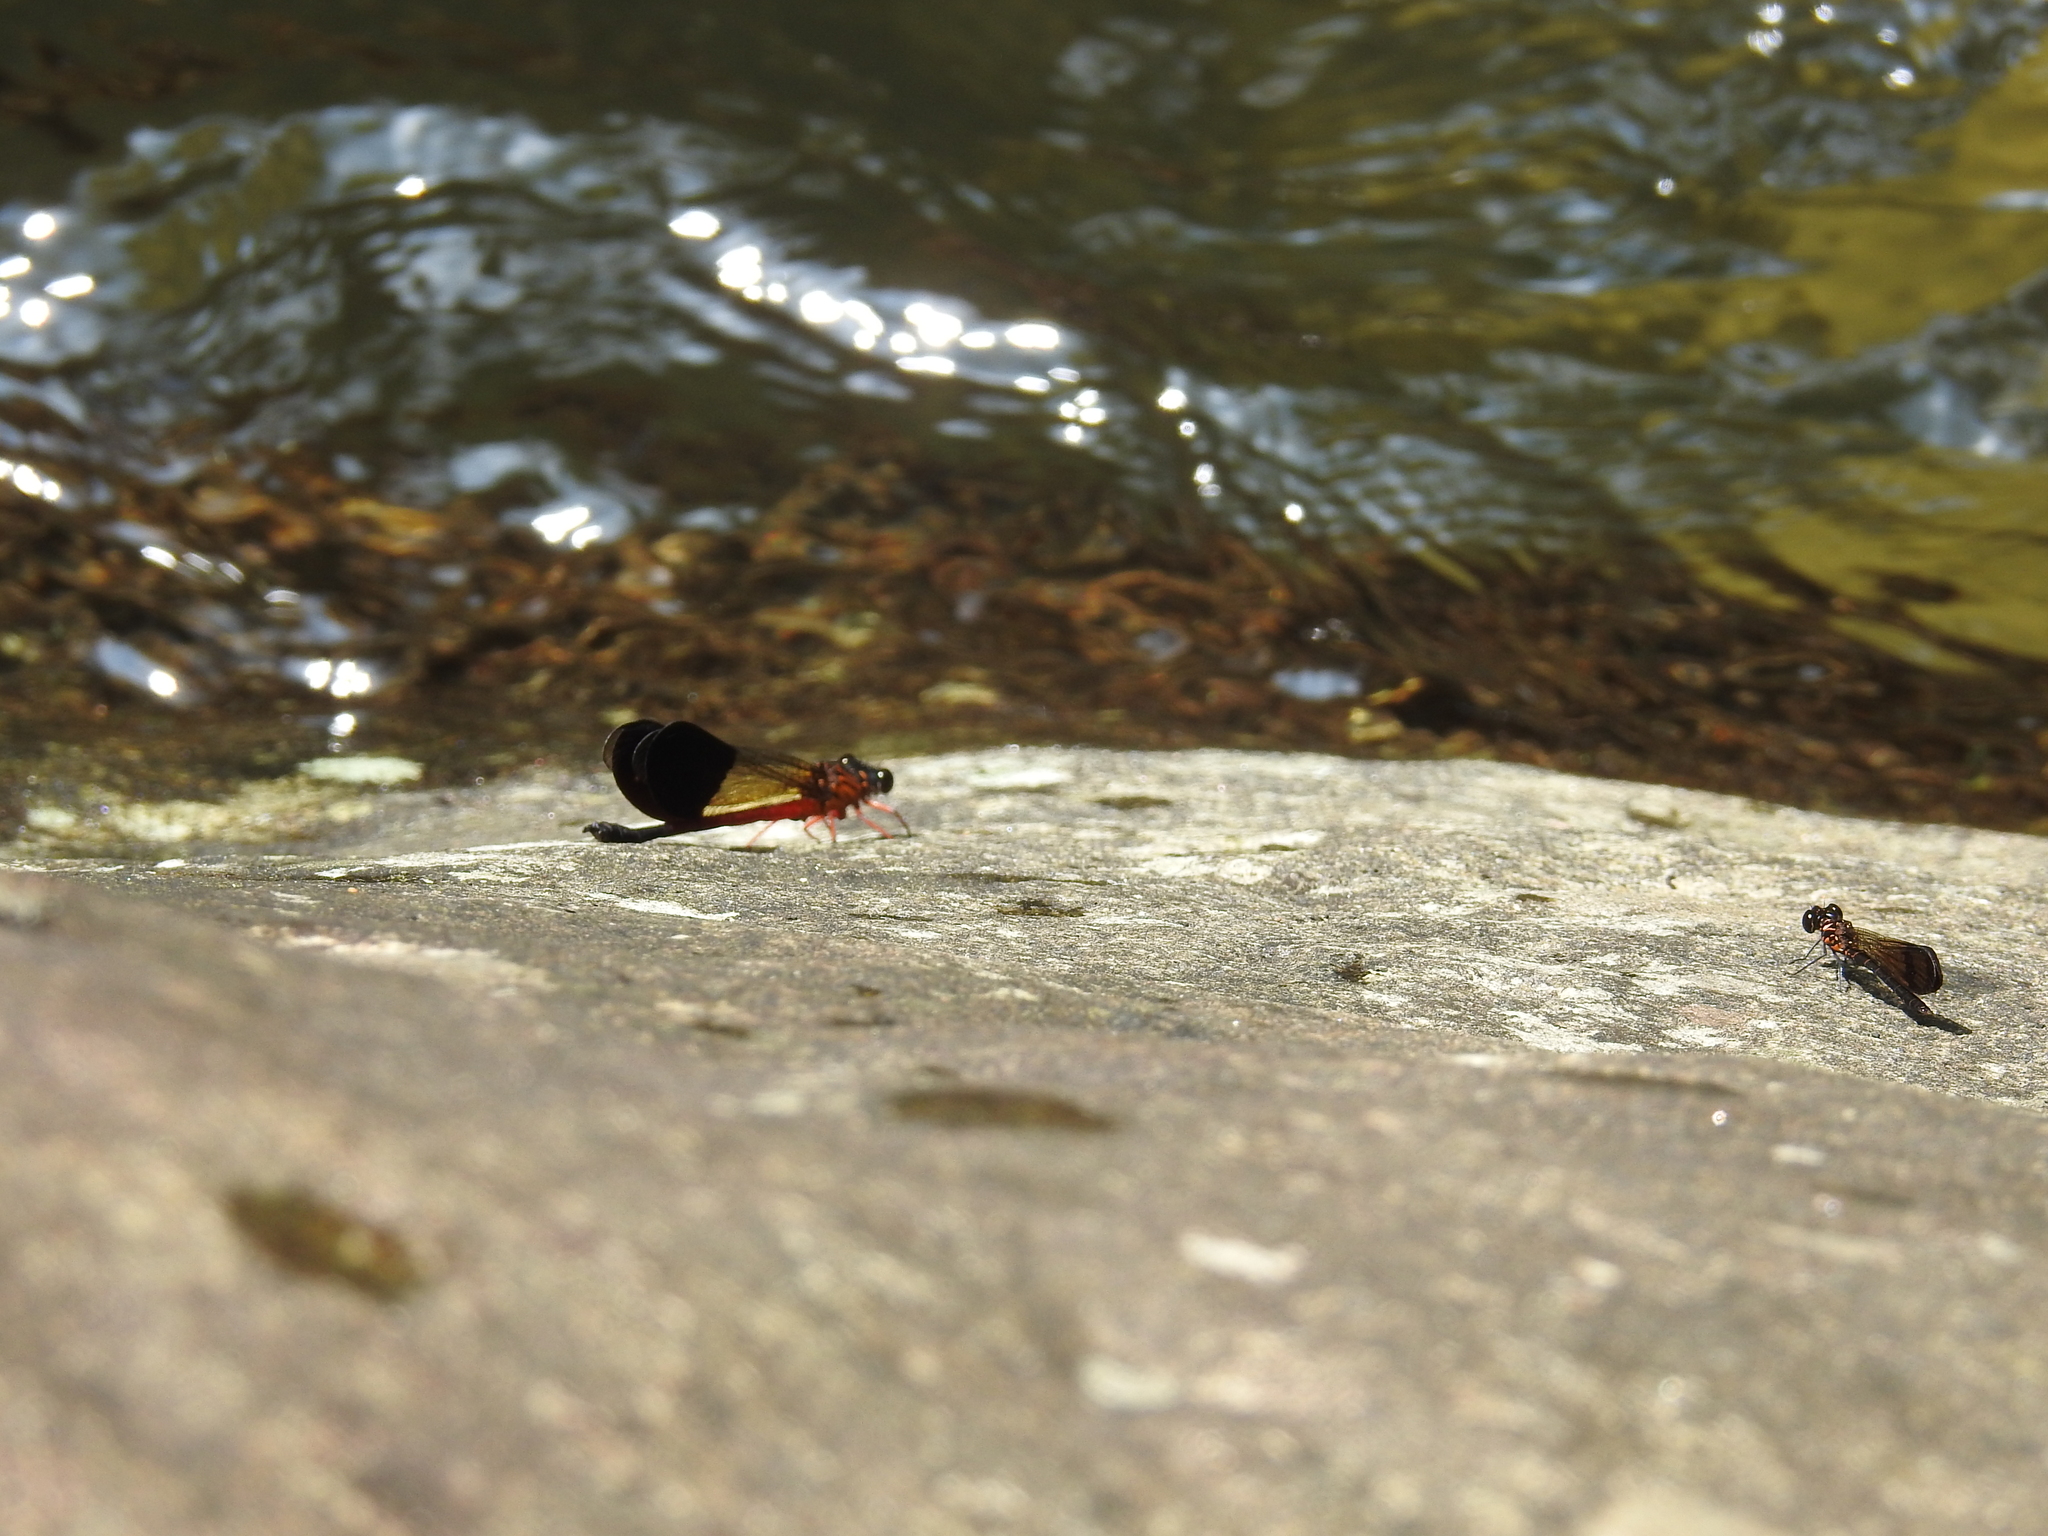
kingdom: Animalia
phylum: Arthropoda
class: Insecta
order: Odonata
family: Chlorocyphidae
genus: Heliocypha
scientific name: Heliocypha bisignata
